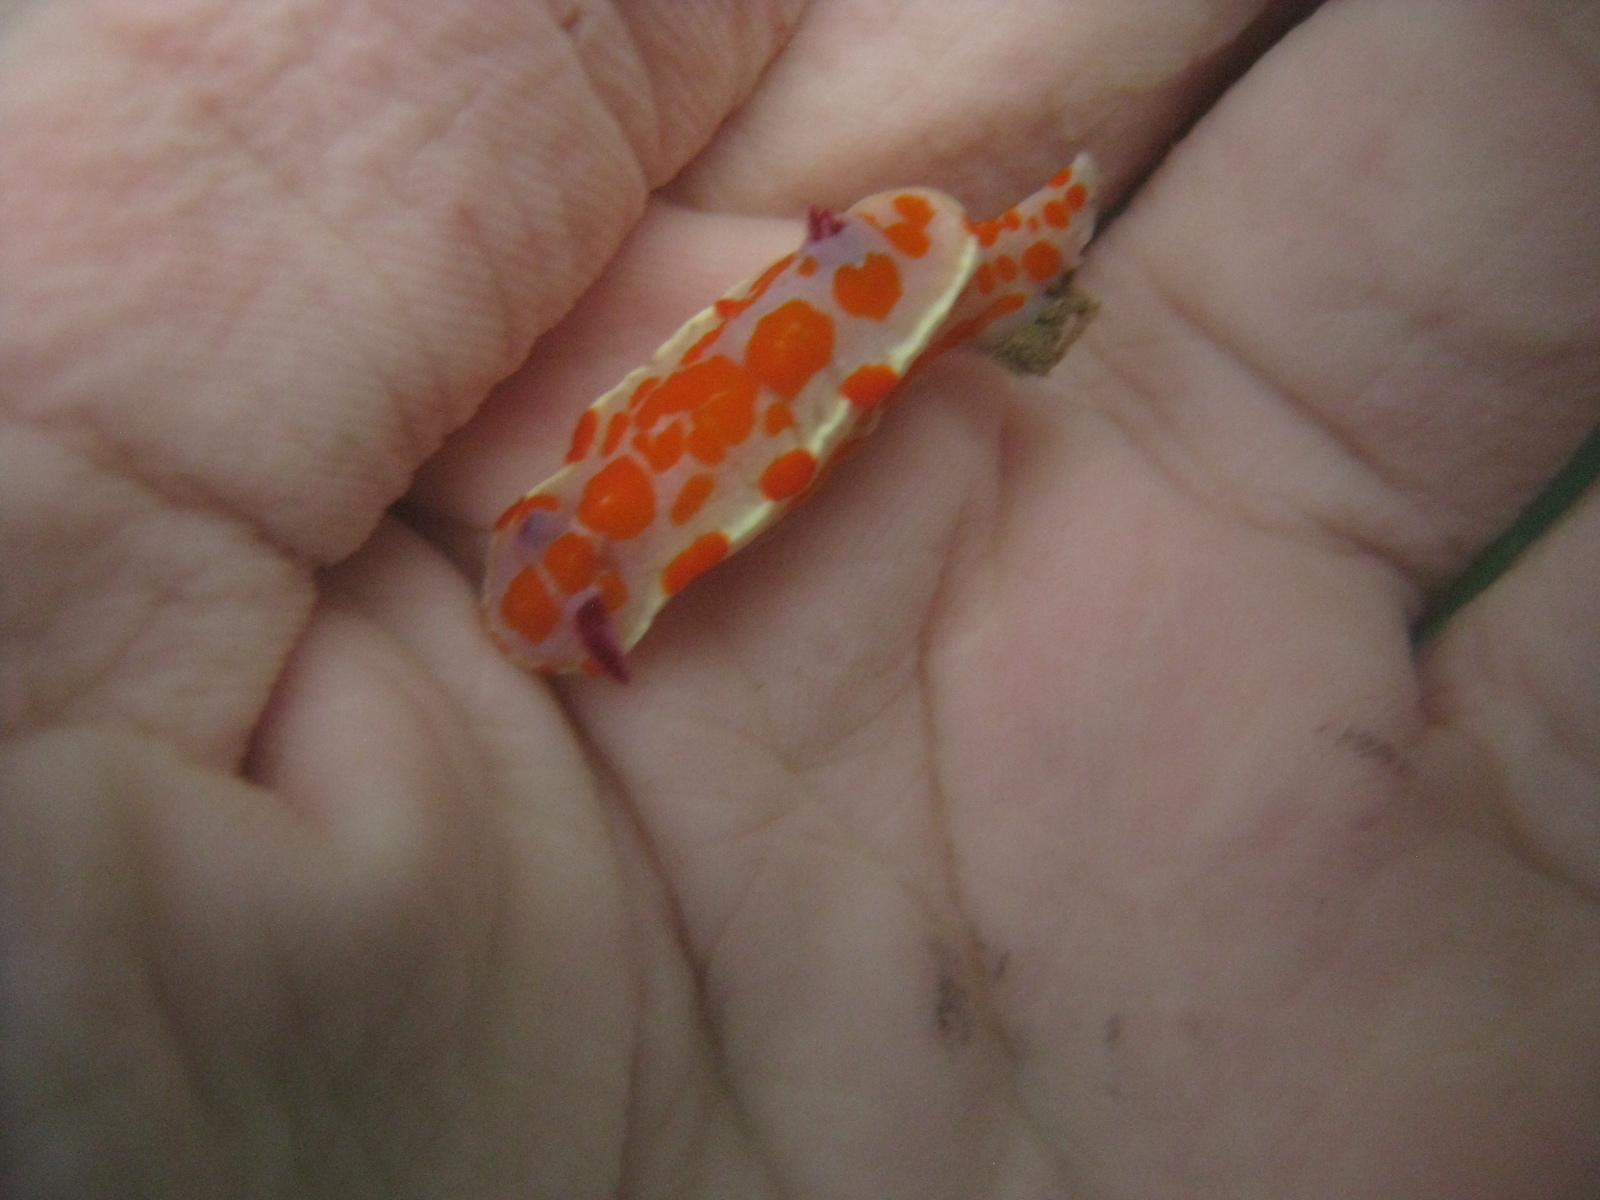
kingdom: Animalia
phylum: Mollusca
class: Gastropoda
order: Nudibranchia
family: Chromodorididae
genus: Ceratosoma
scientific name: Ceratosoma amoenum
